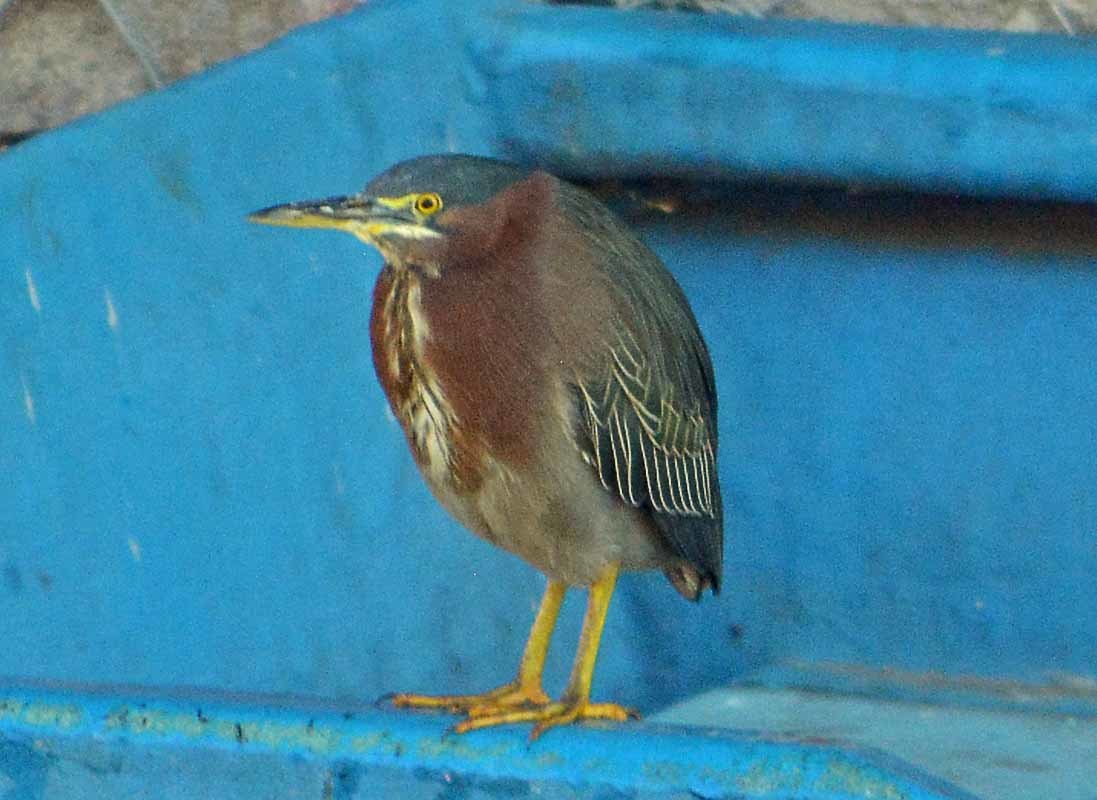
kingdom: Animalia
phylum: Chordata
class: Aves
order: Pelecaniformes
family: Ardeidae
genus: Butorides
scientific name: Butorides virescens
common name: Green heron
